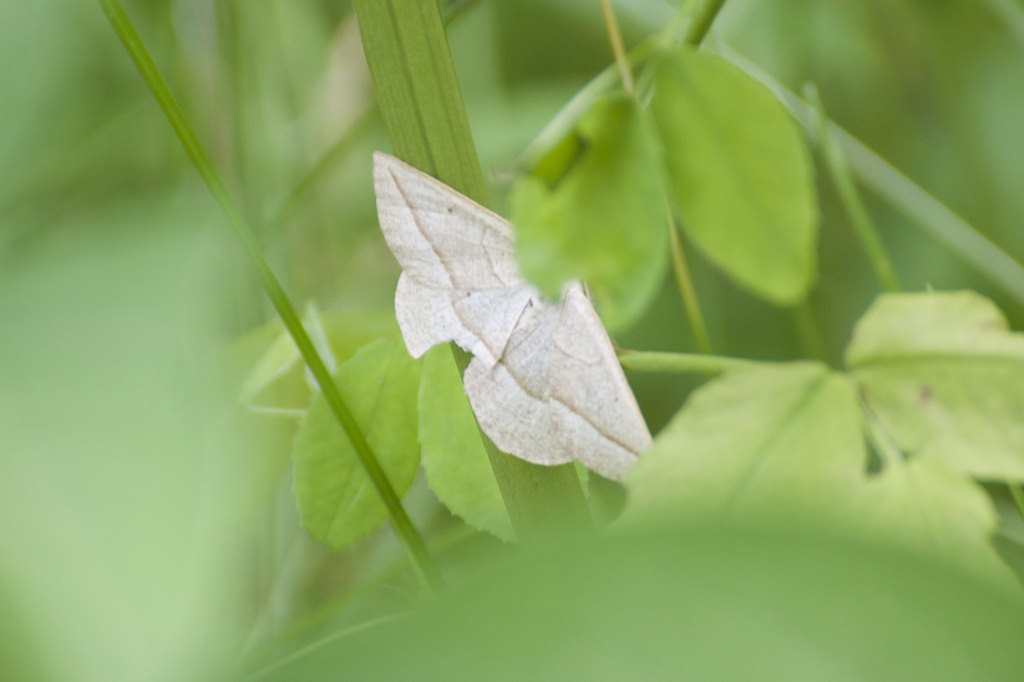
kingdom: Animalia
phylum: Arthropoda
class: Insecta
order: Lepidoptera
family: Geometridae
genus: Eusarca
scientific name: Eusarca confusaria
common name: Confused eusarca
